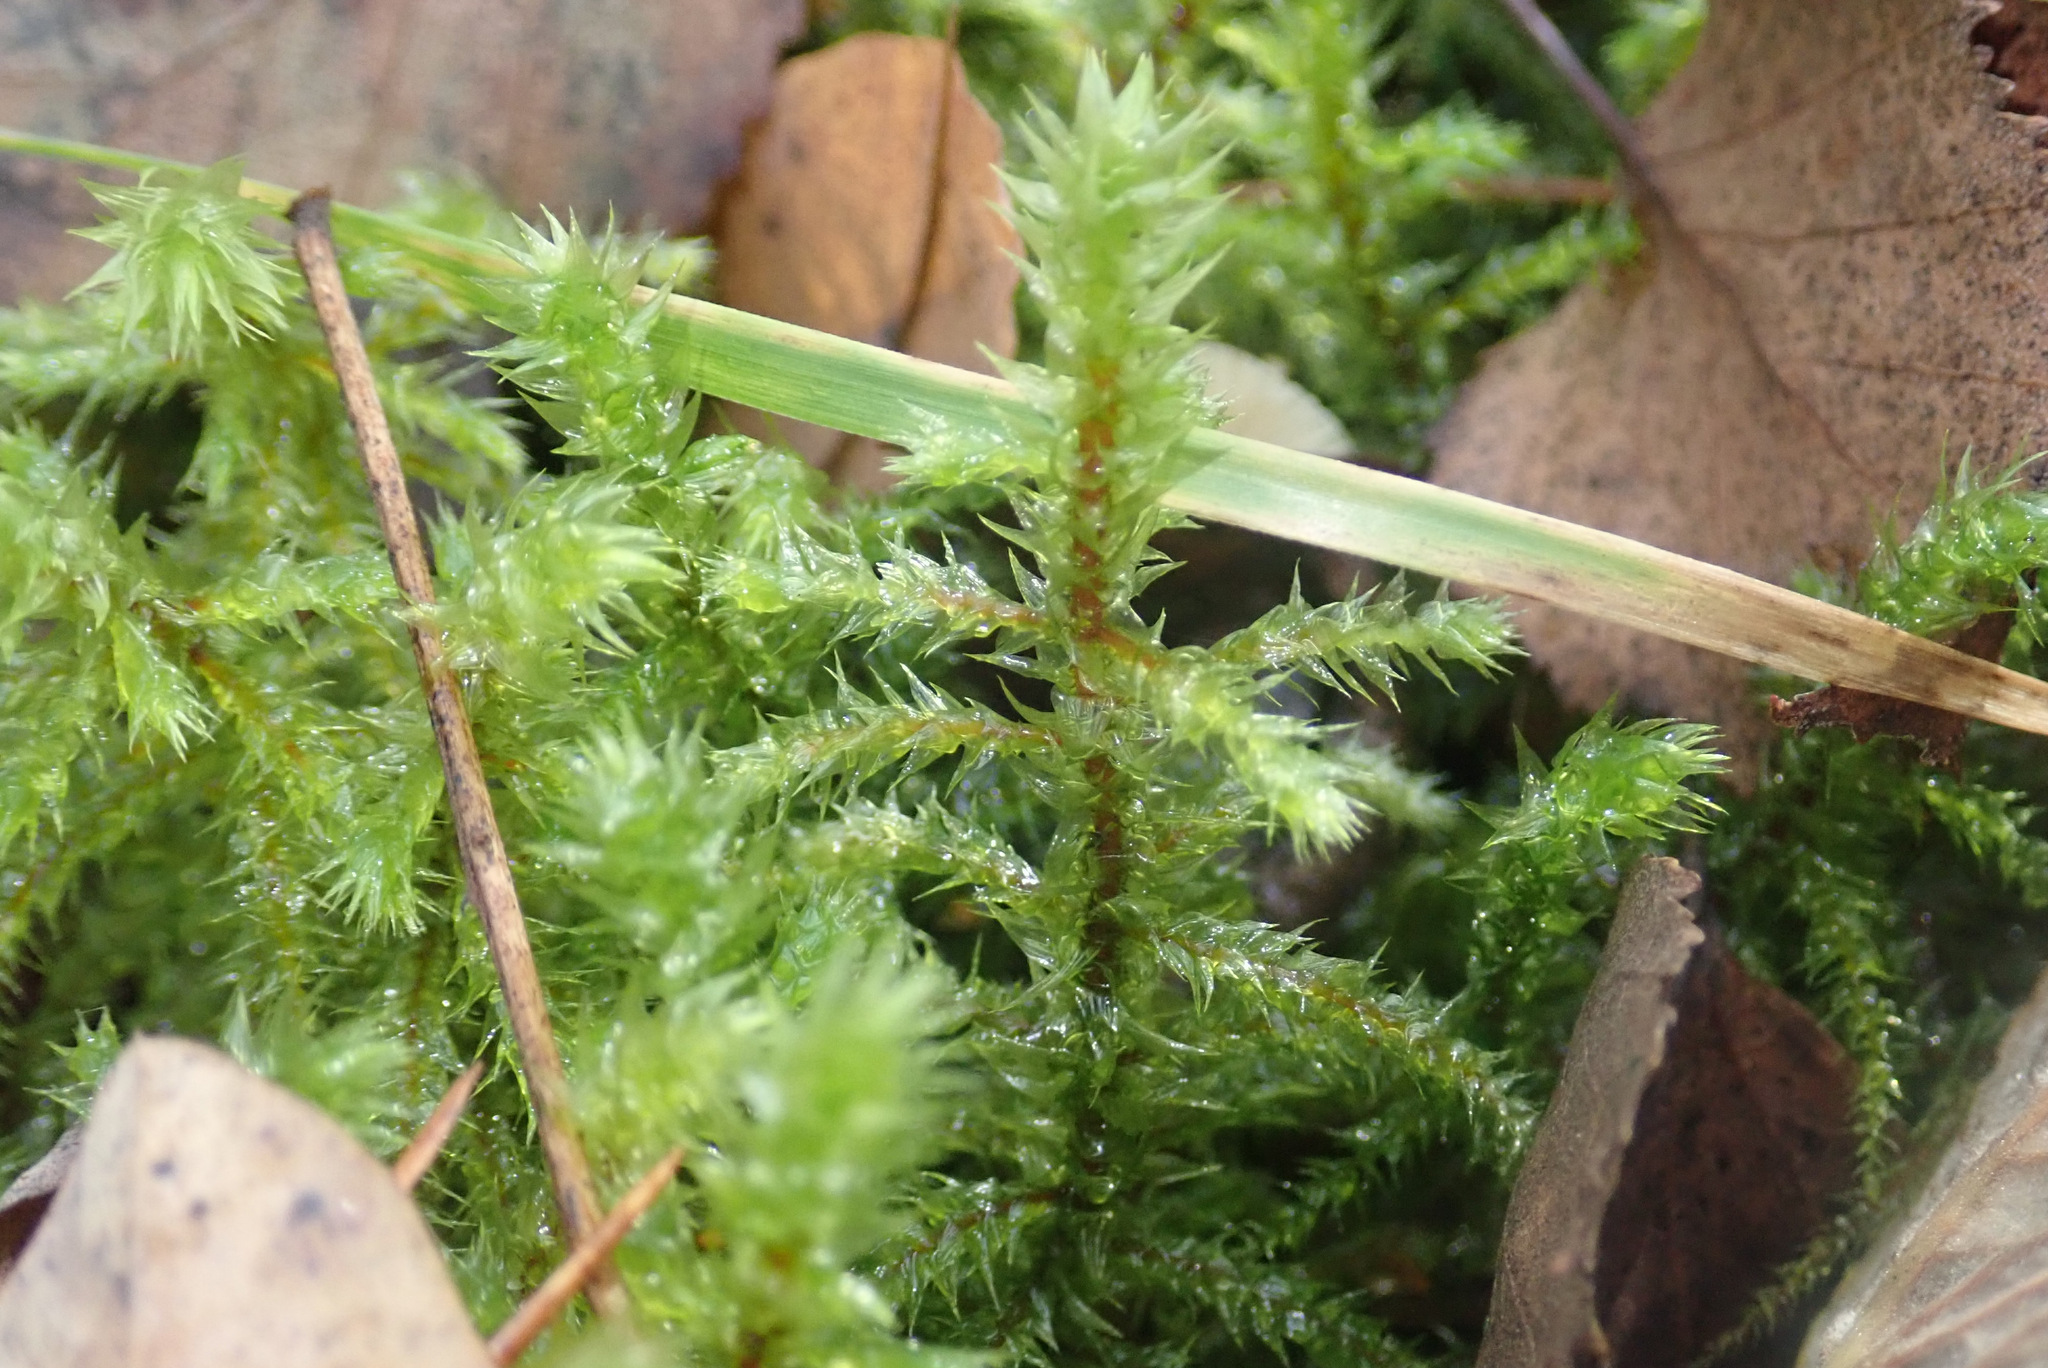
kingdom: Plantae
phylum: Bryophyta
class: Bryopsida
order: Hypnales
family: Hylocomiaceae
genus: Hylocomiadelphus
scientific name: Hylocomiadelphus triquetrus
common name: Rough goose neck moss
